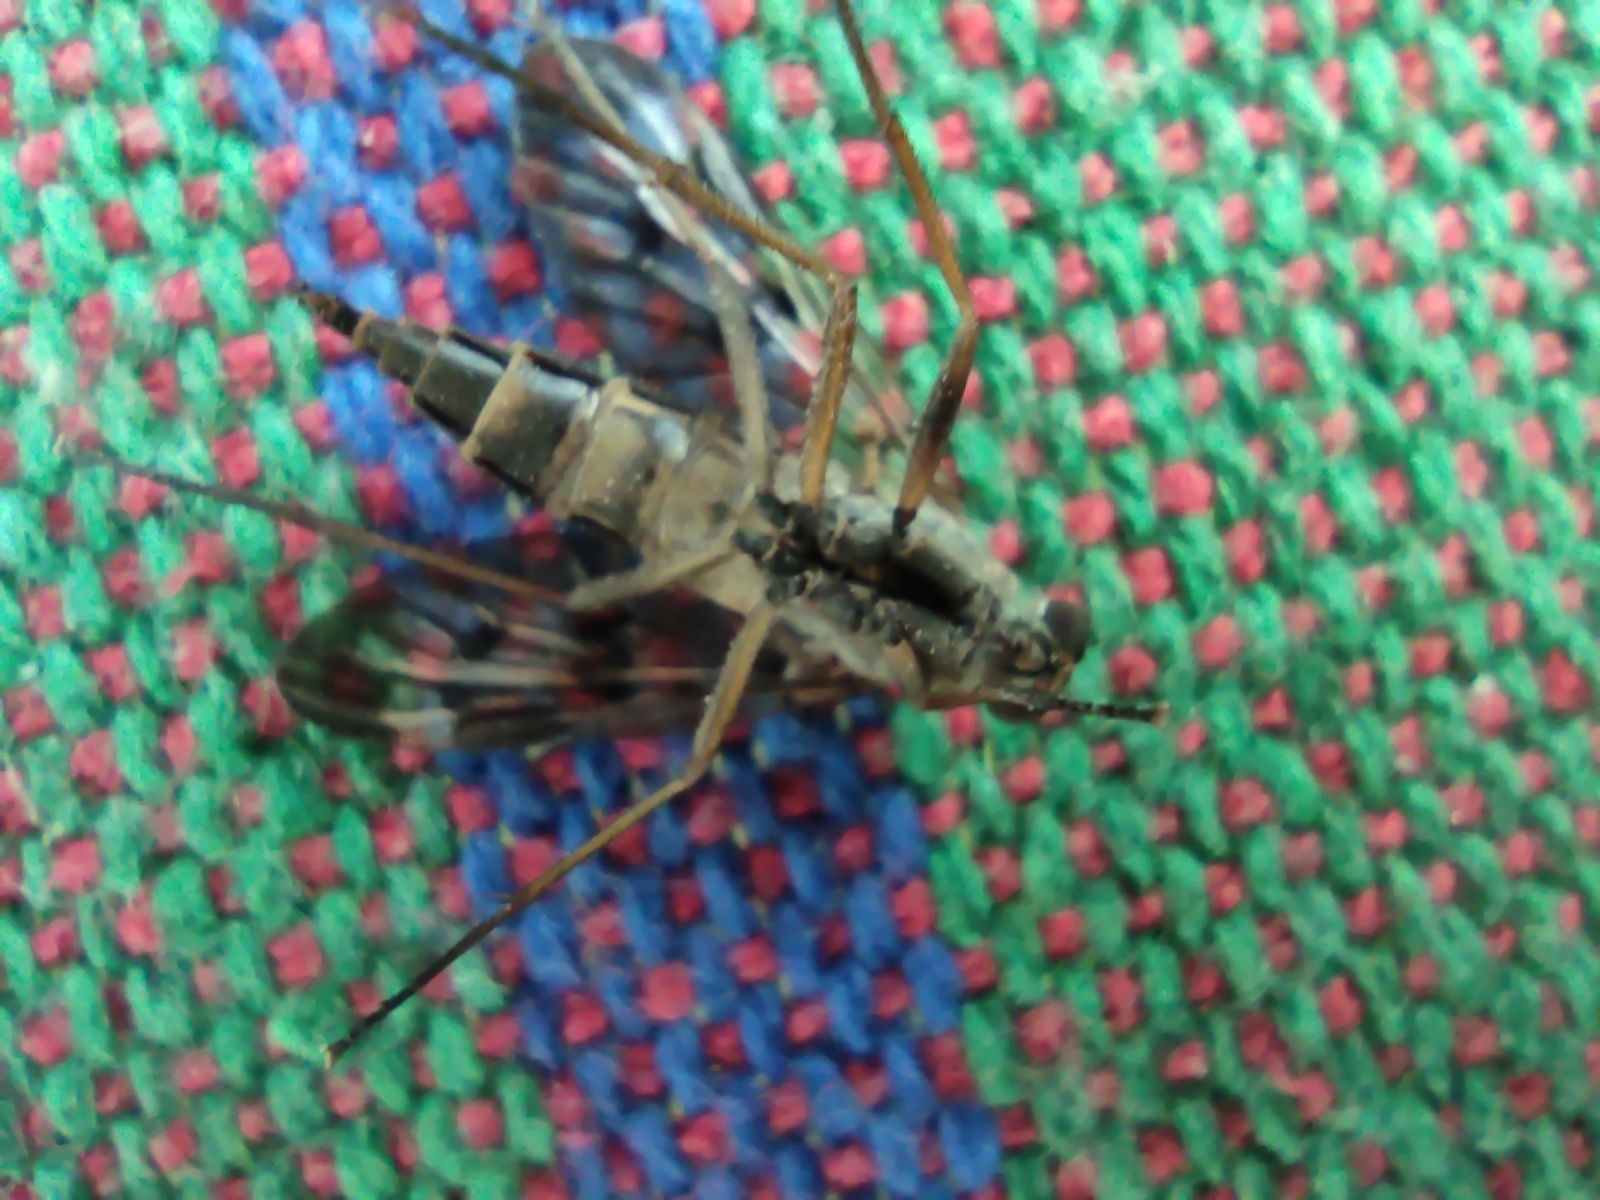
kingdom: Animalia
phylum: Arthropoda
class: Insecta
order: Diptera
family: Rhagionidae
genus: Rhagio
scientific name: Rhagio scolopacea
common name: Downlooker snipefly
